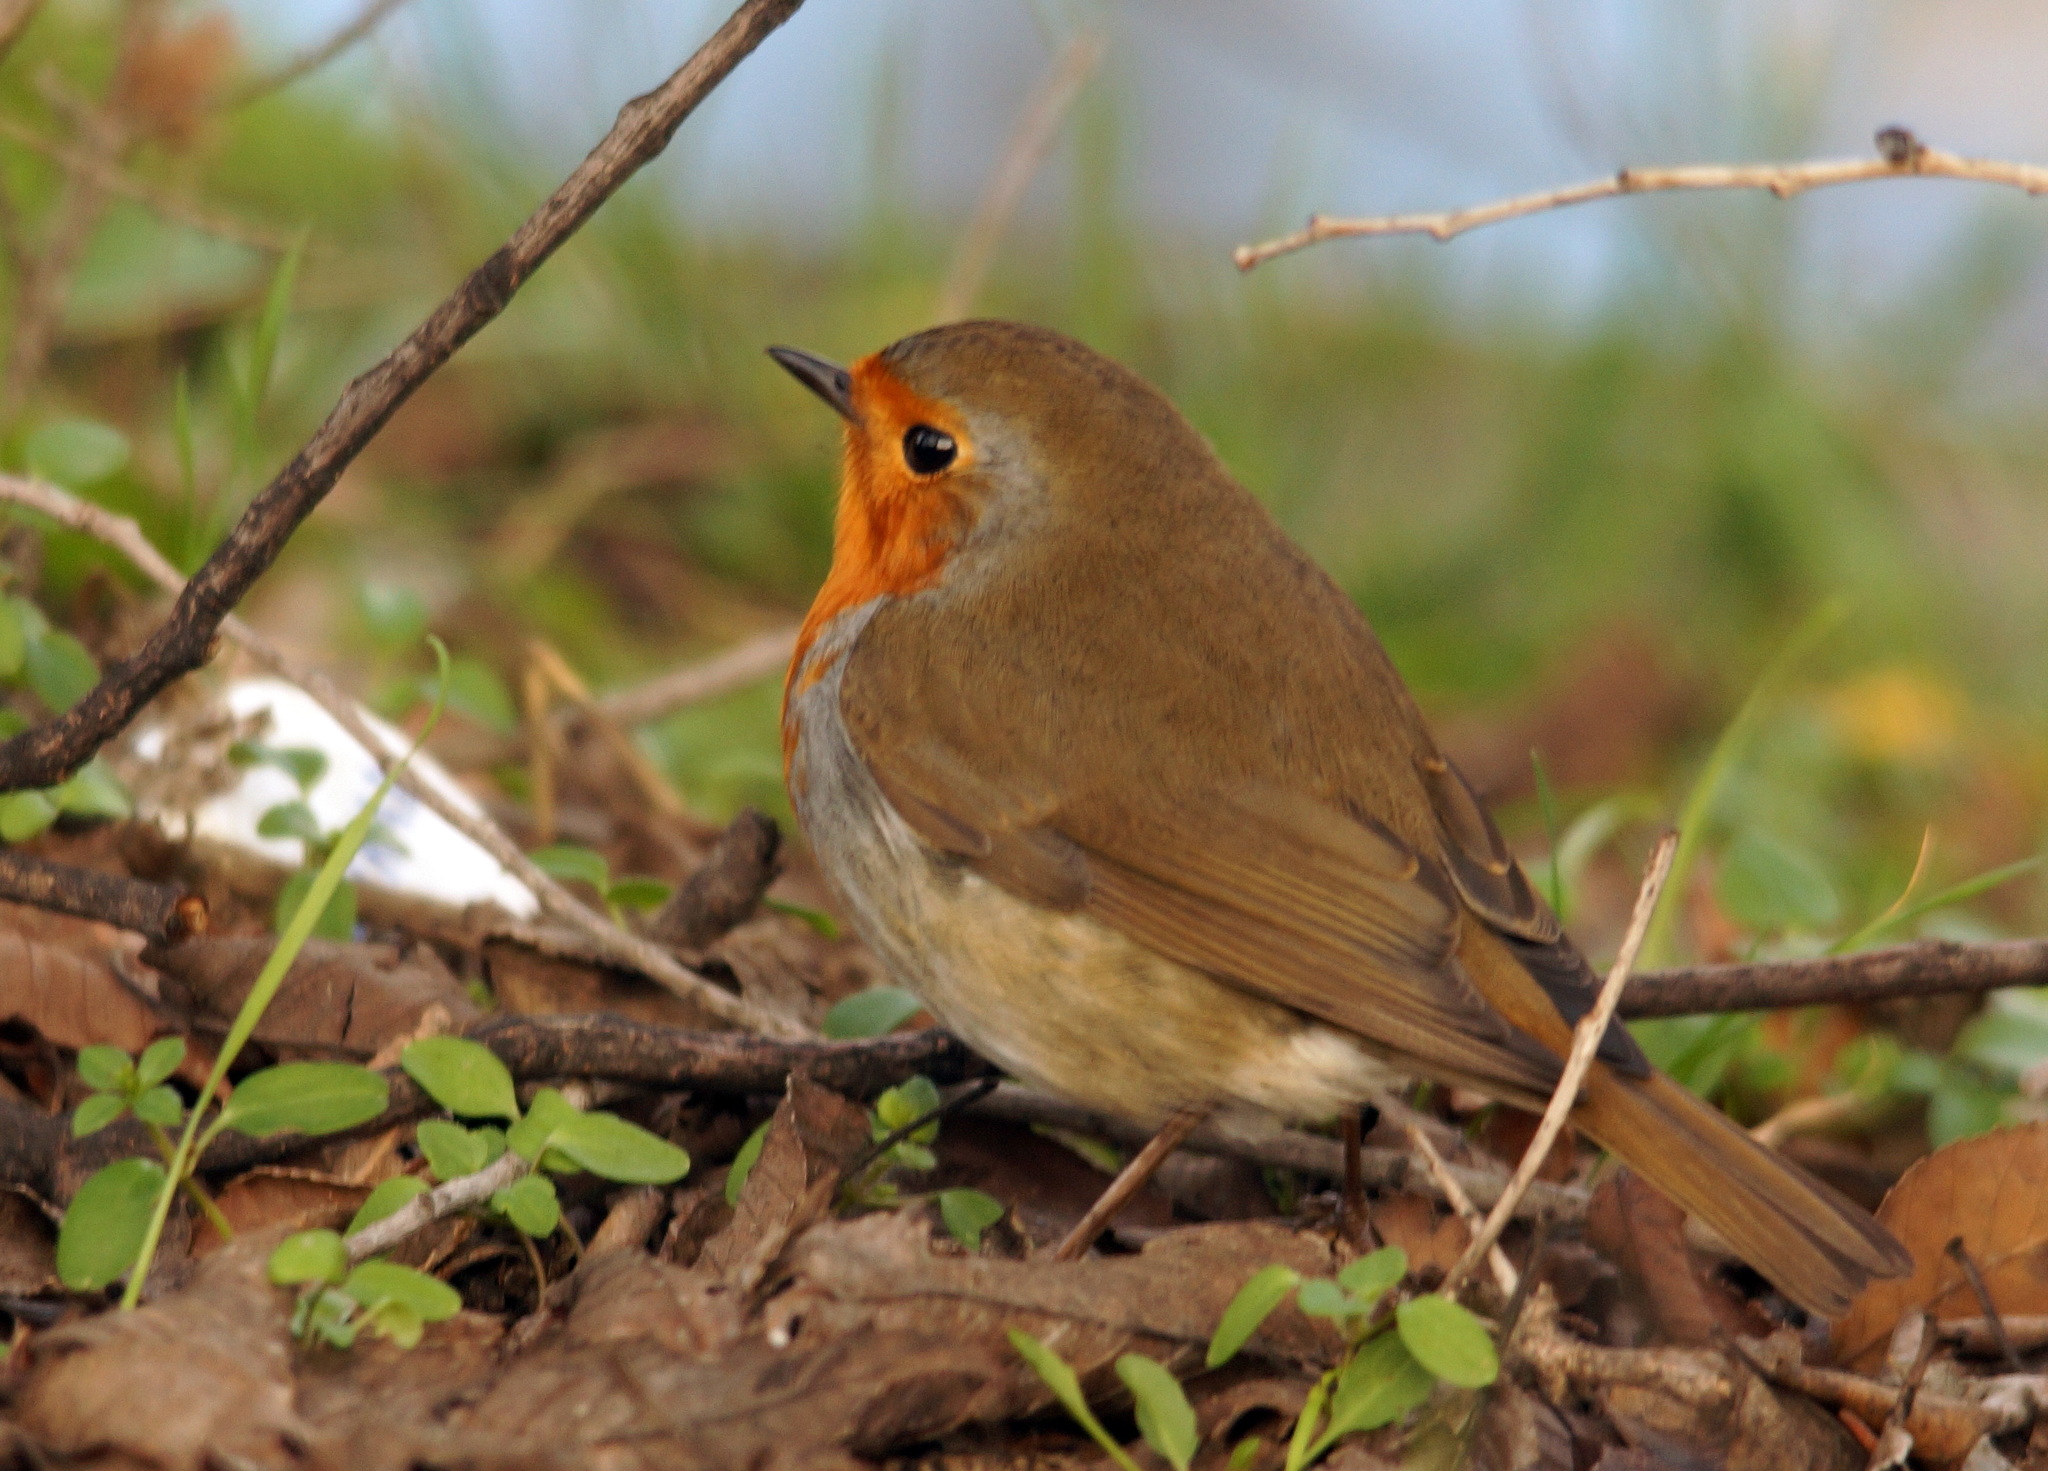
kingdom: Animalia
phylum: Chordata
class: Aves
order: Passeriformes
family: Muscicapidae
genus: Erithacus
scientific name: Erithacus rubecula
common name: European robin
